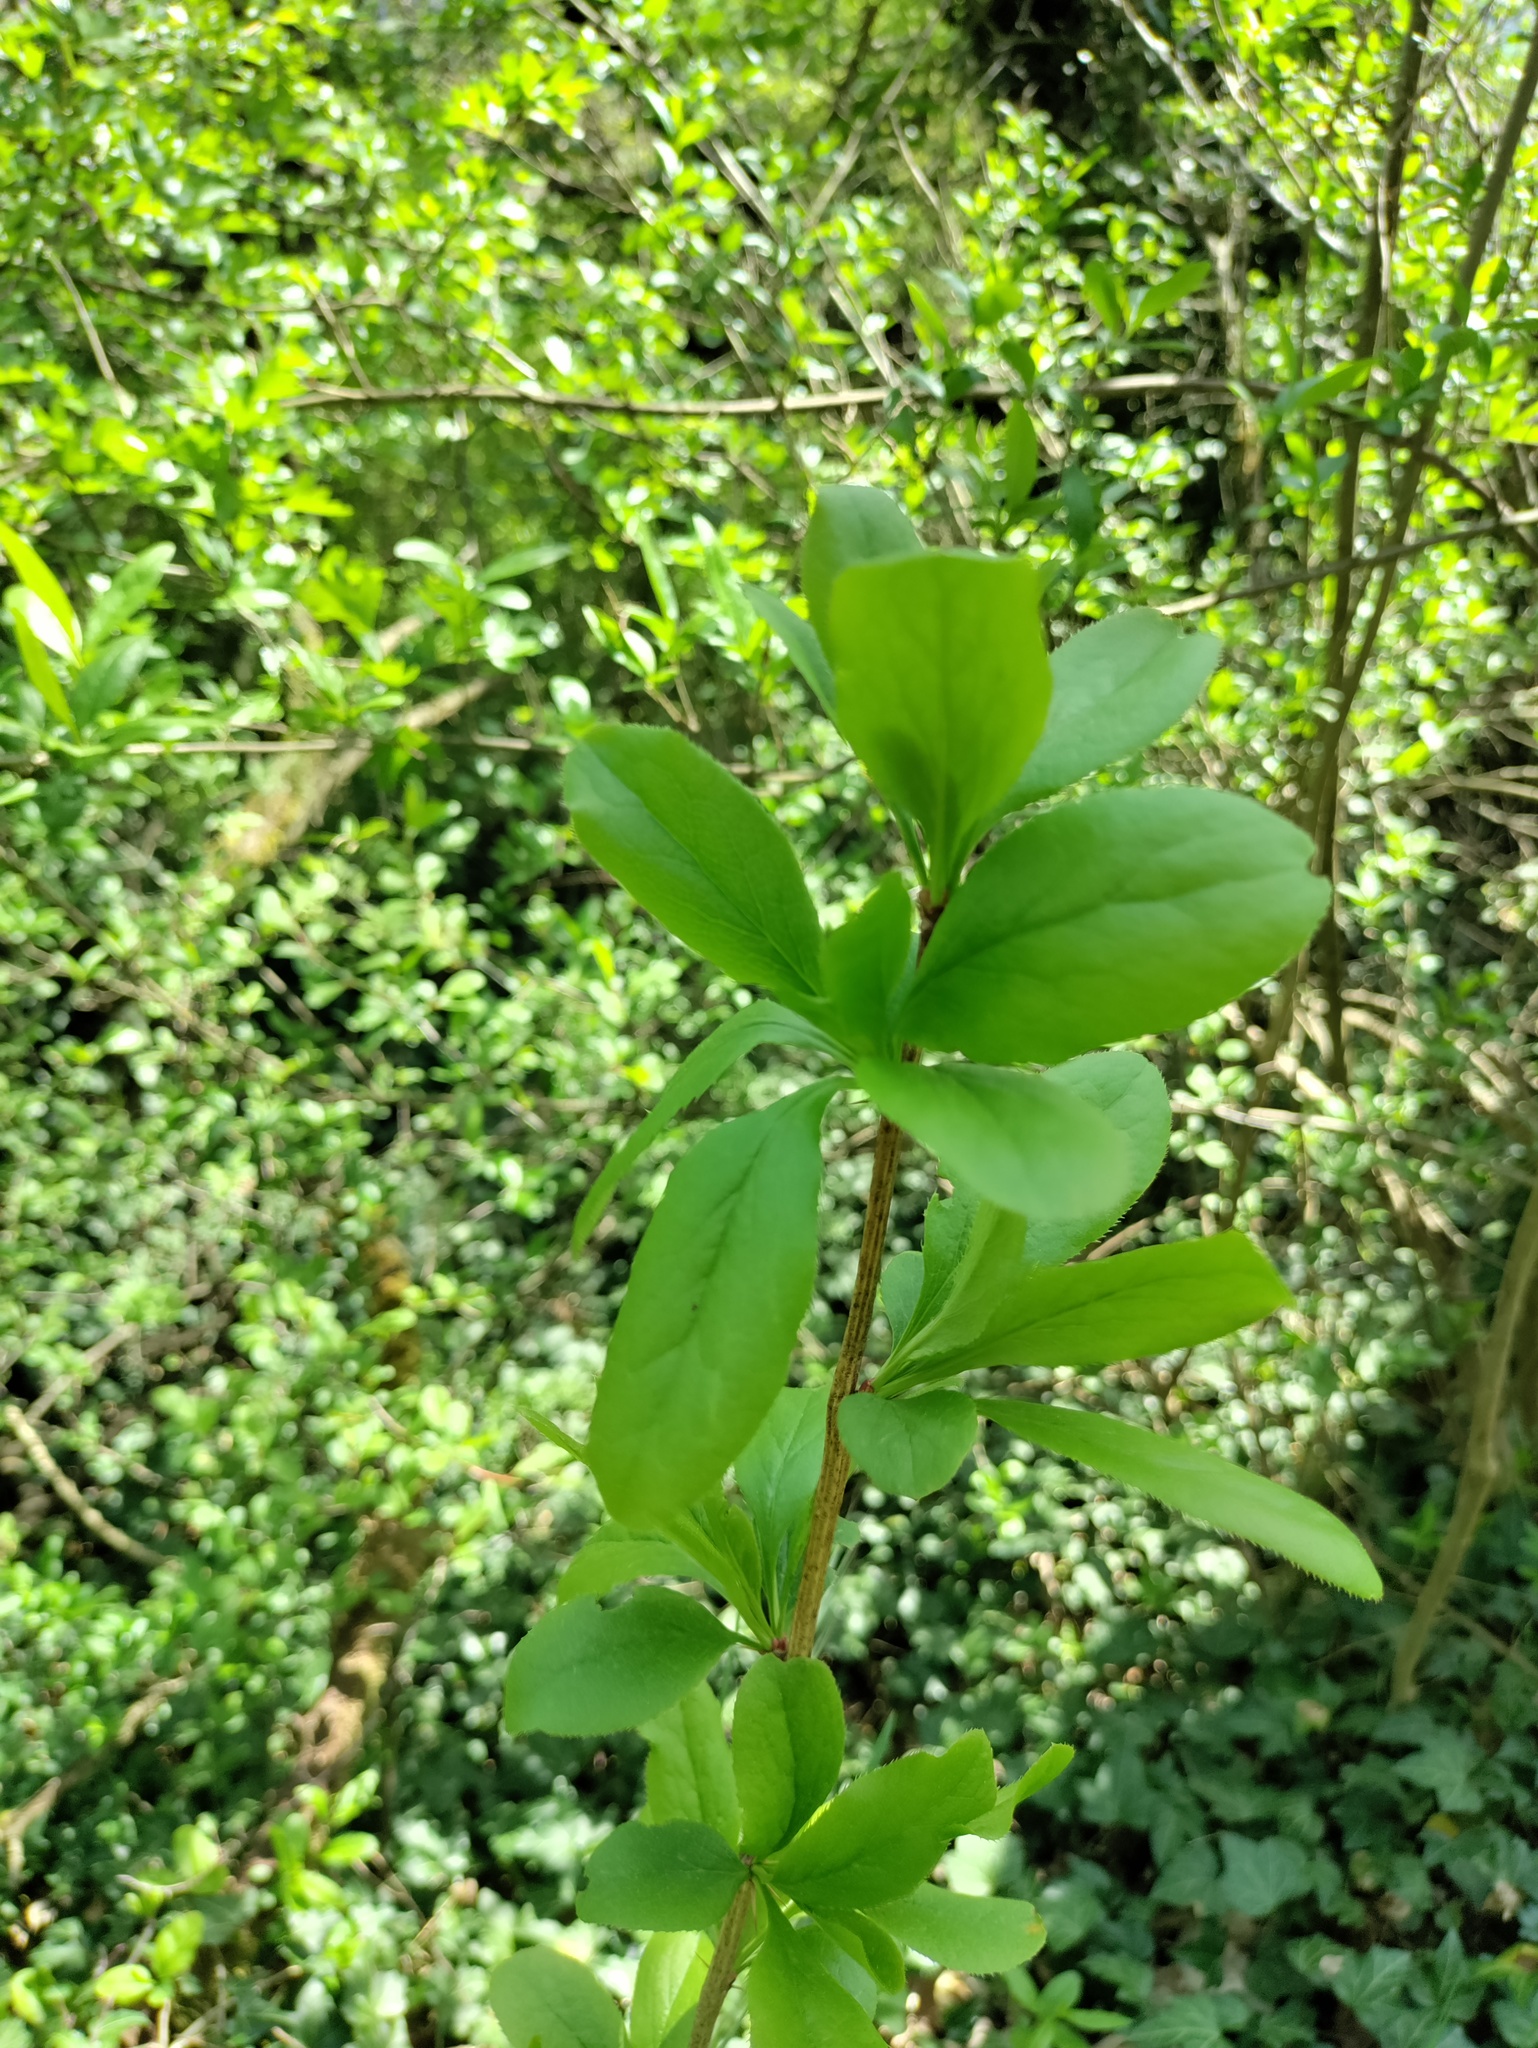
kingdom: Plantae
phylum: Tracheophyta
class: Magnoliopsida
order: Ranunculales
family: Berberidaceae
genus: Berberis
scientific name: Berberis vulgaris
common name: Barberry
